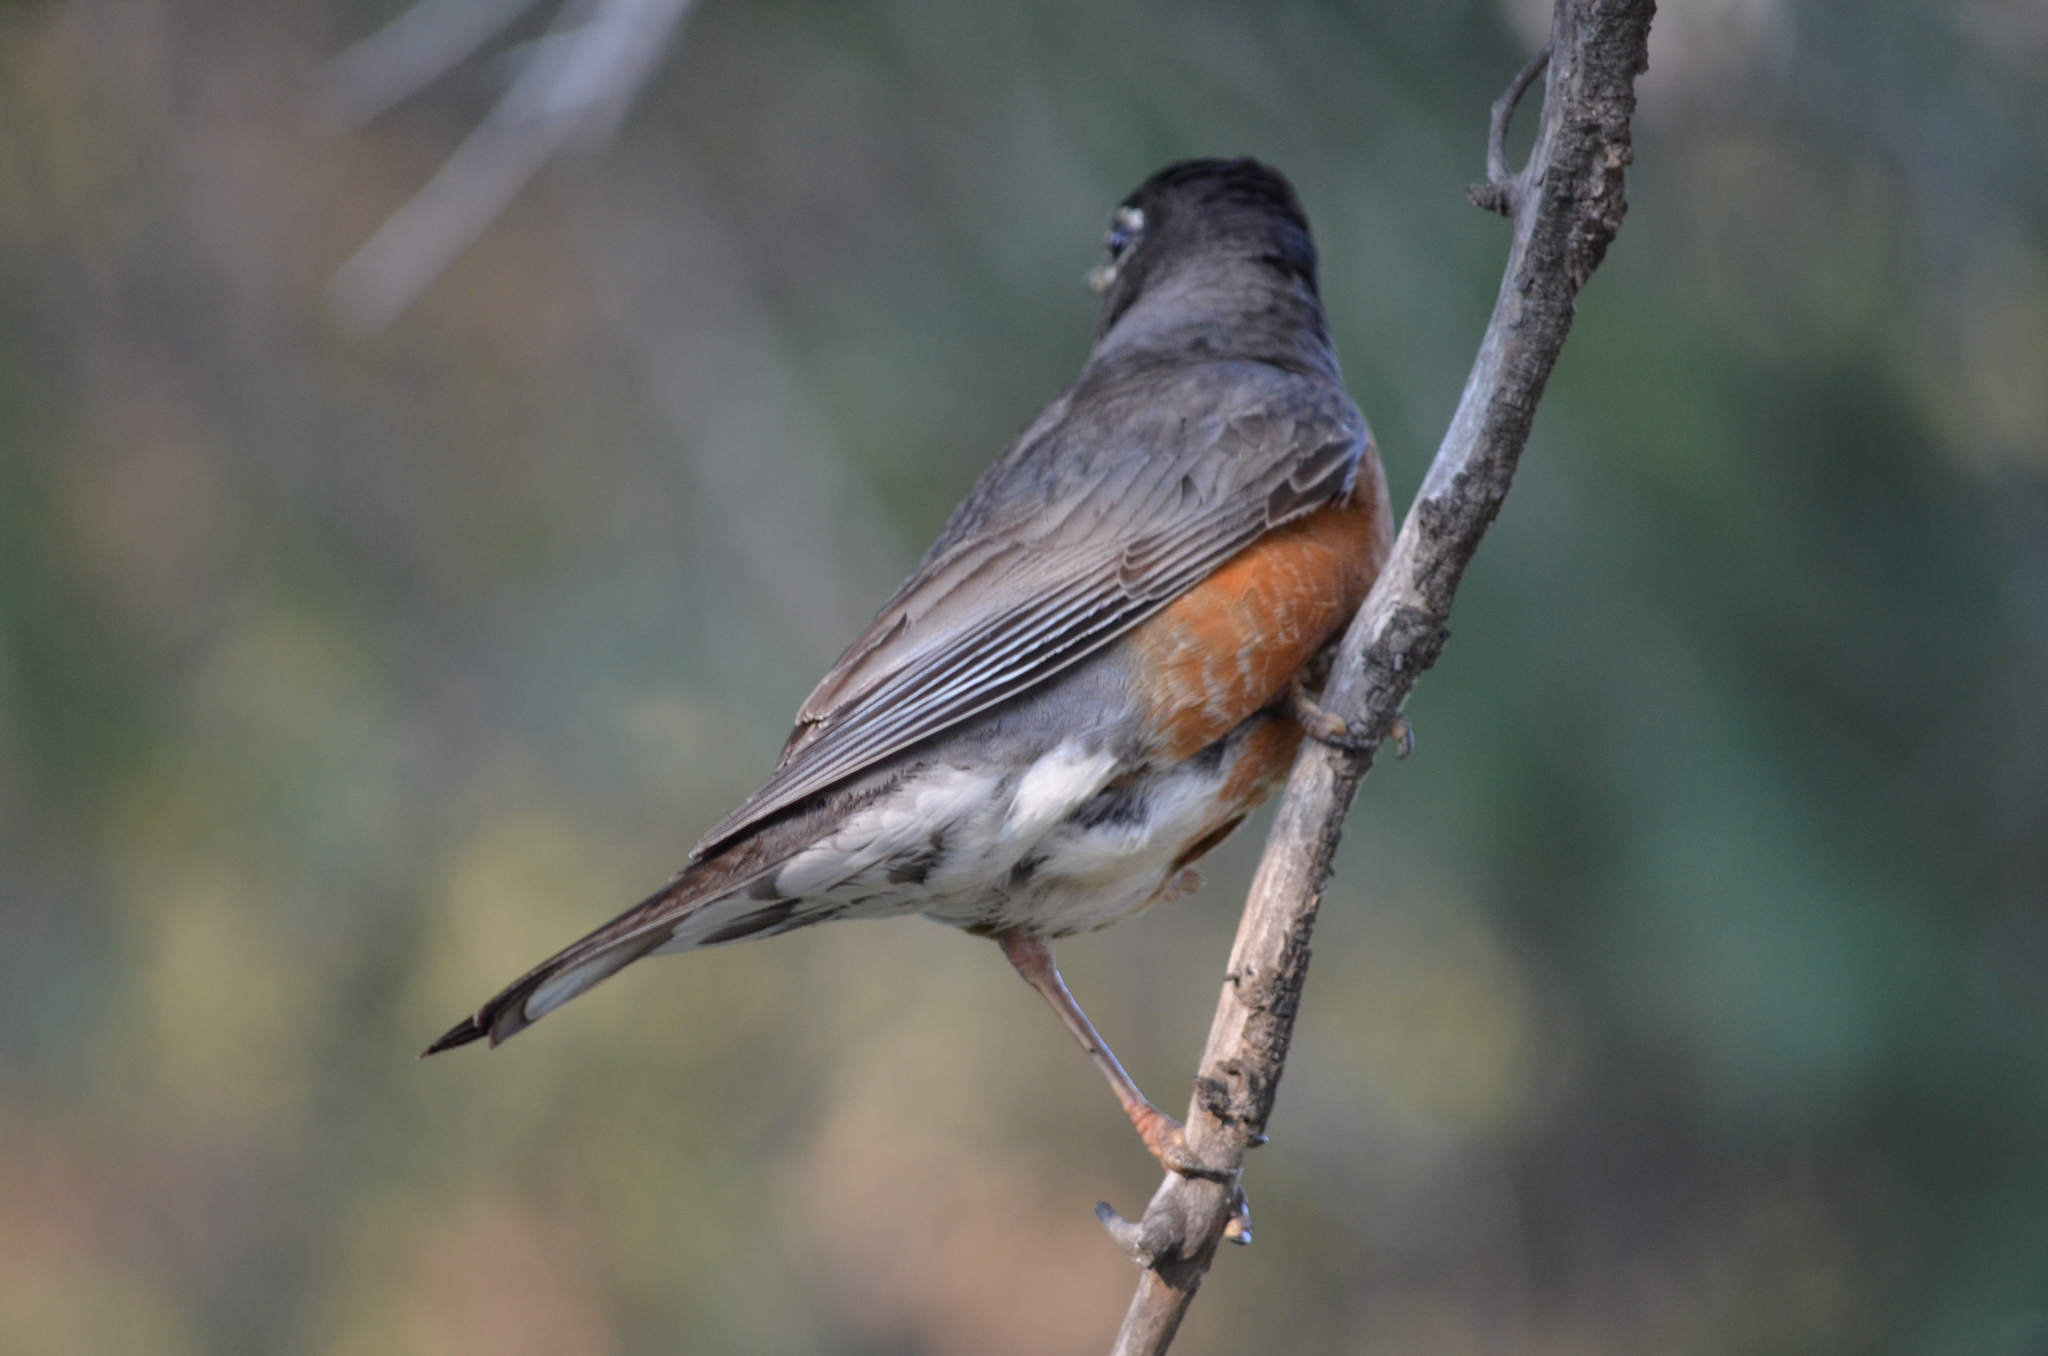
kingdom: Animalia
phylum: Chordata
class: Aves
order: Passeriformes
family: Turdidae
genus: Turdus
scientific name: Turdus migratorius
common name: American robin
